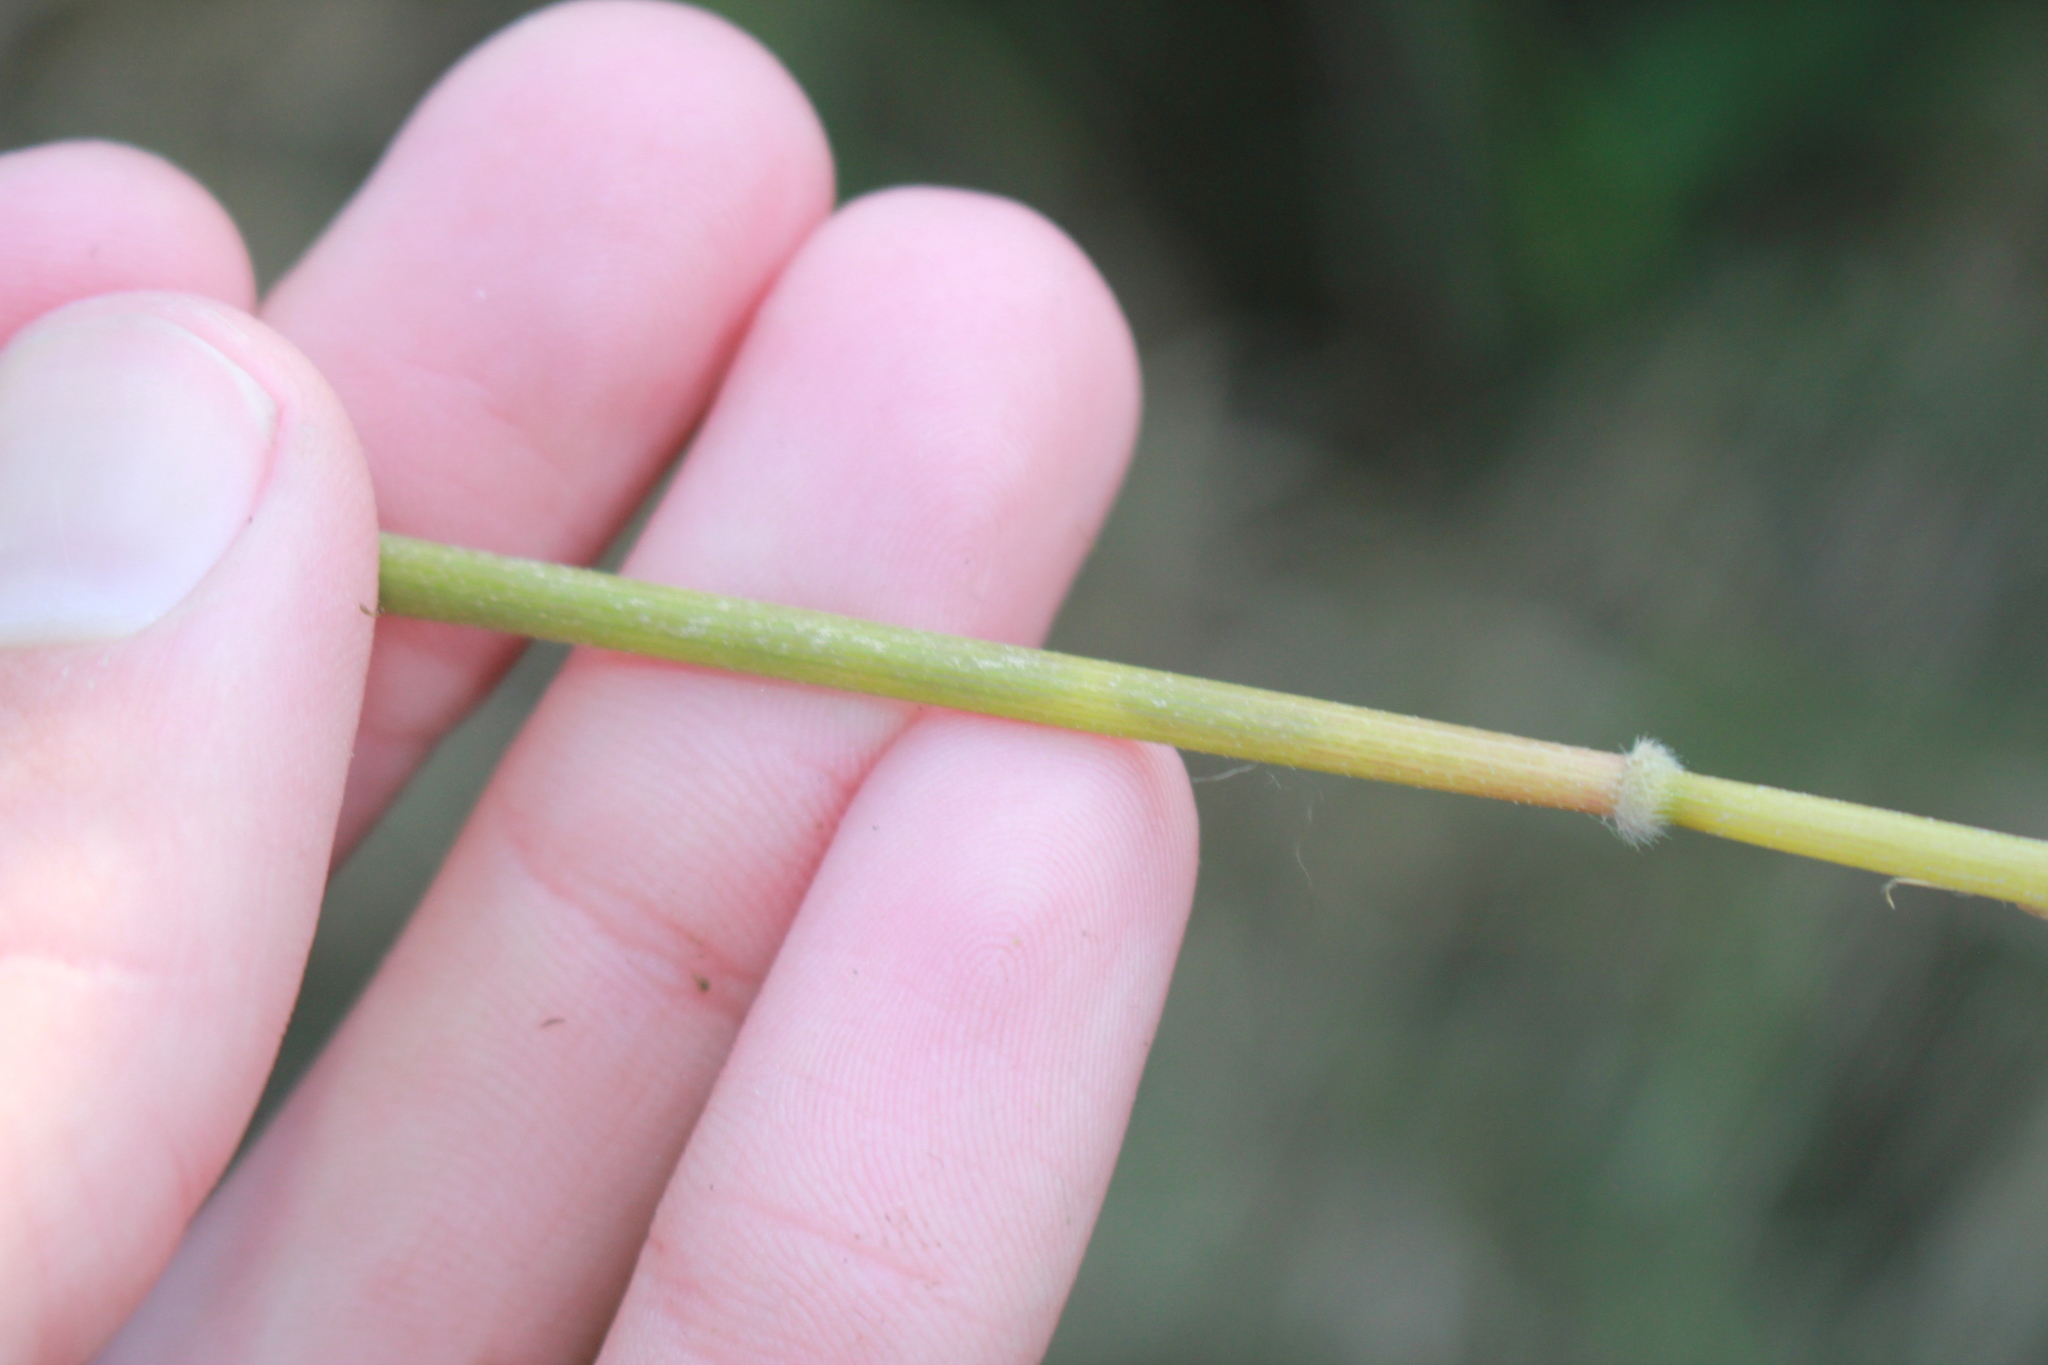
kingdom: Plantae
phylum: Tracheophyta
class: Liliopsida
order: Poales
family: Poaceae
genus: Leersia
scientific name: Leersia oryzoides
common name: Cut-grass
